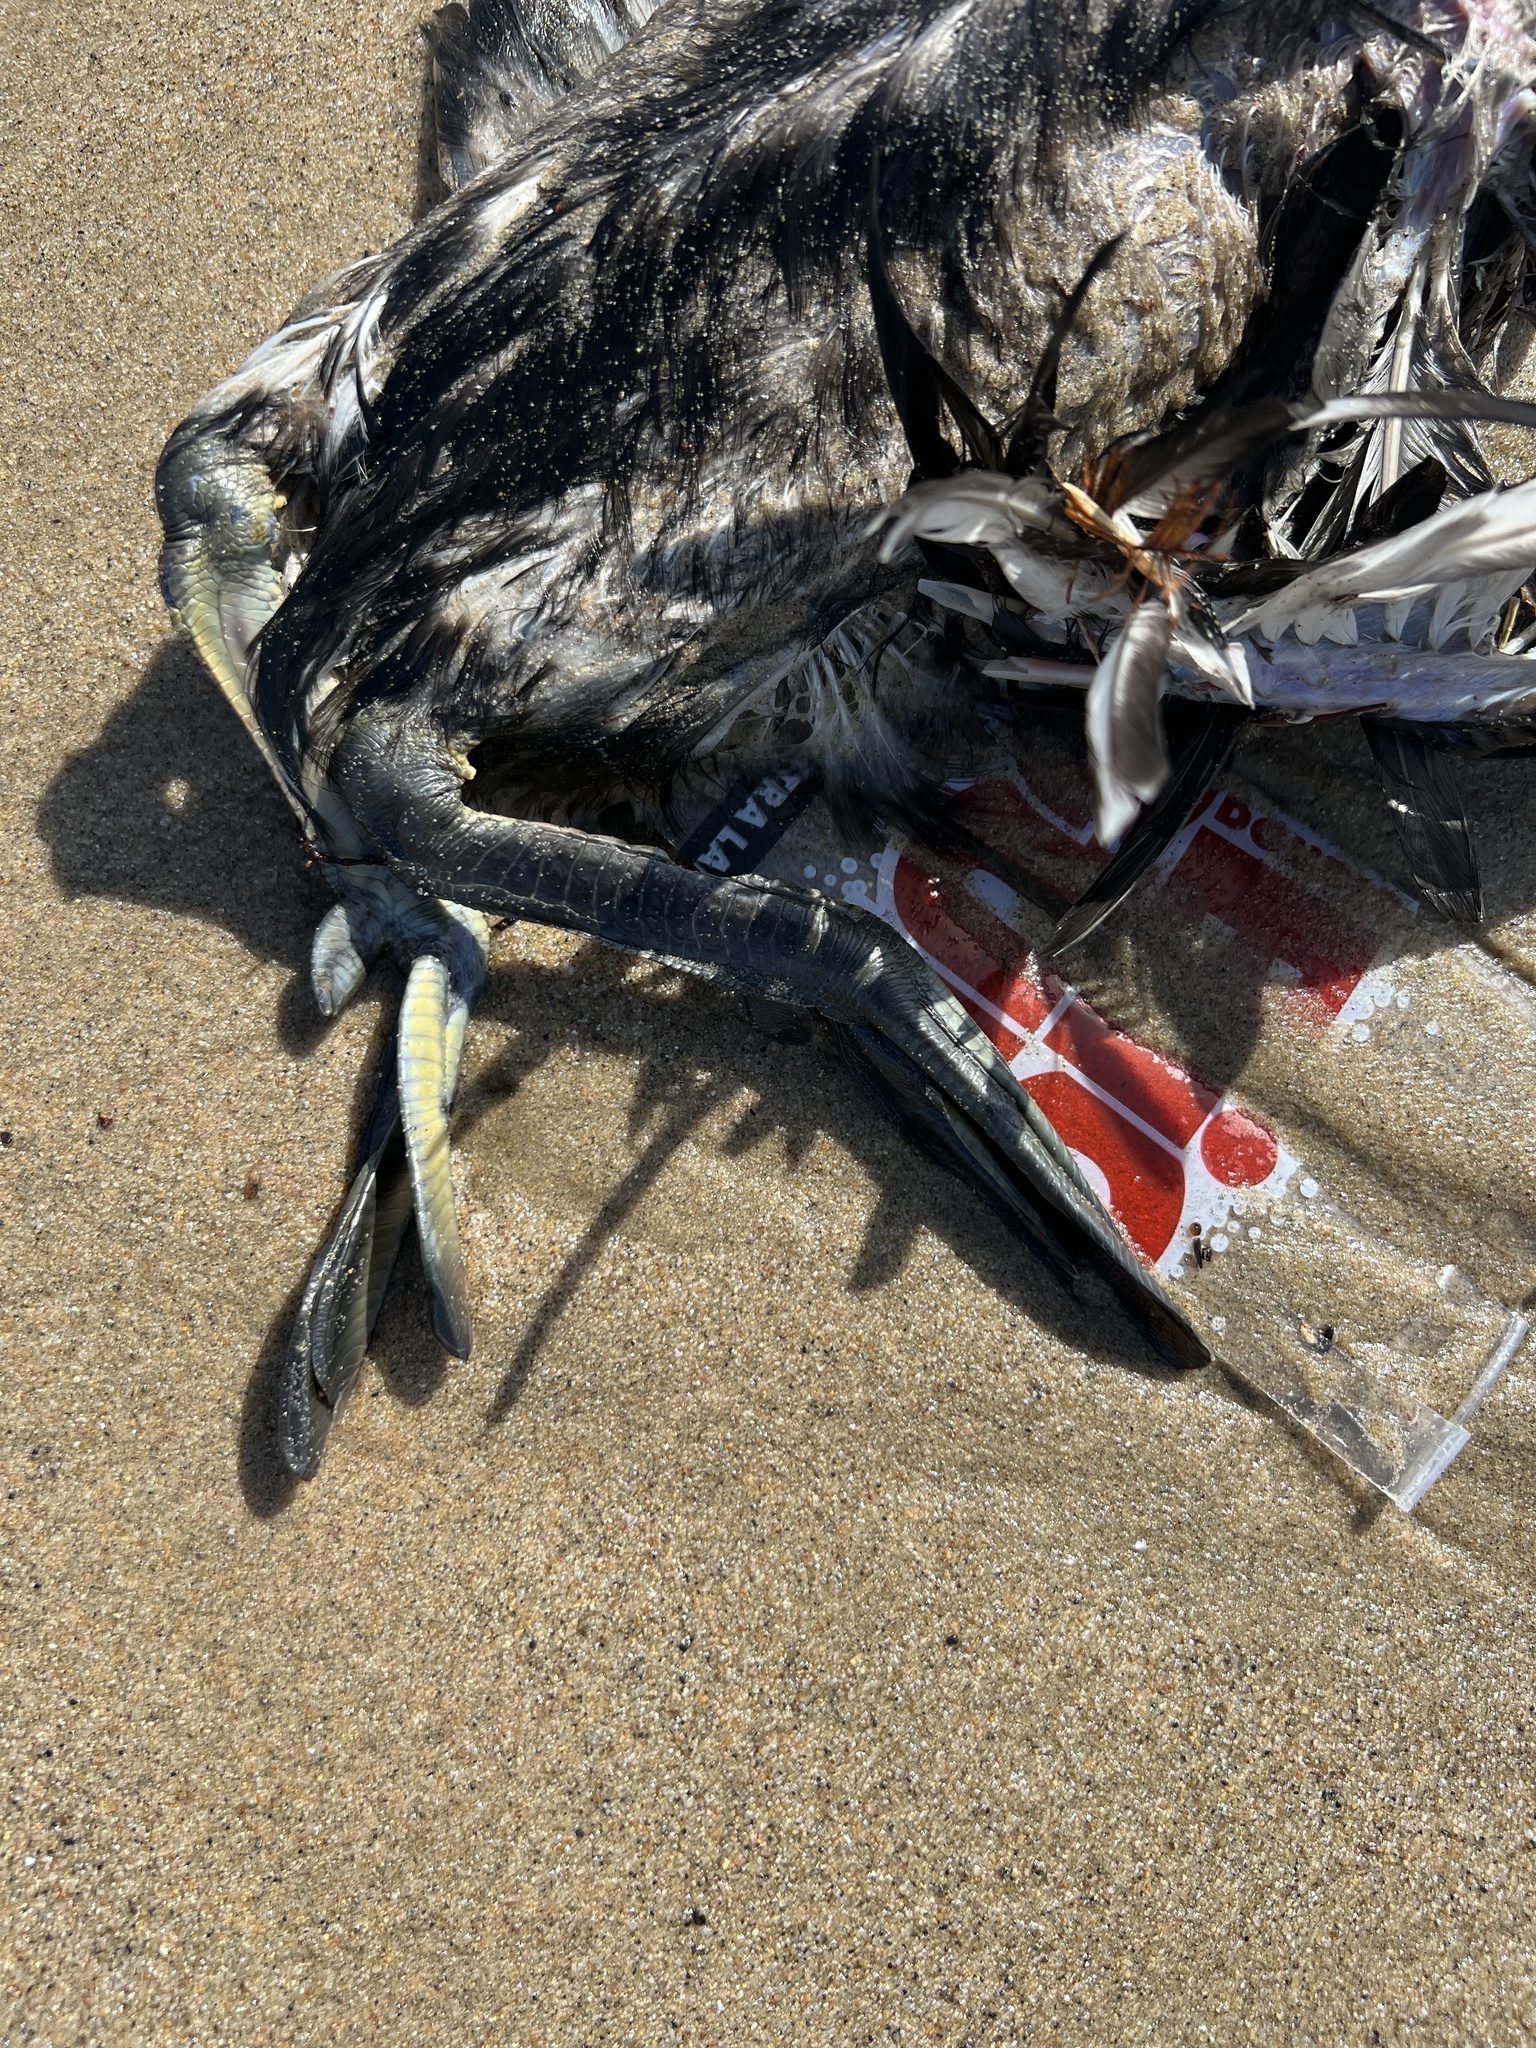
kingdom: Animalia
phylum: Chordata
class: Aves
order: Podicipediformes
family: Podicipedidae
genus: Aechmophorus
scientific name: Aechmophorus occidentalis
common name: Western grebe
